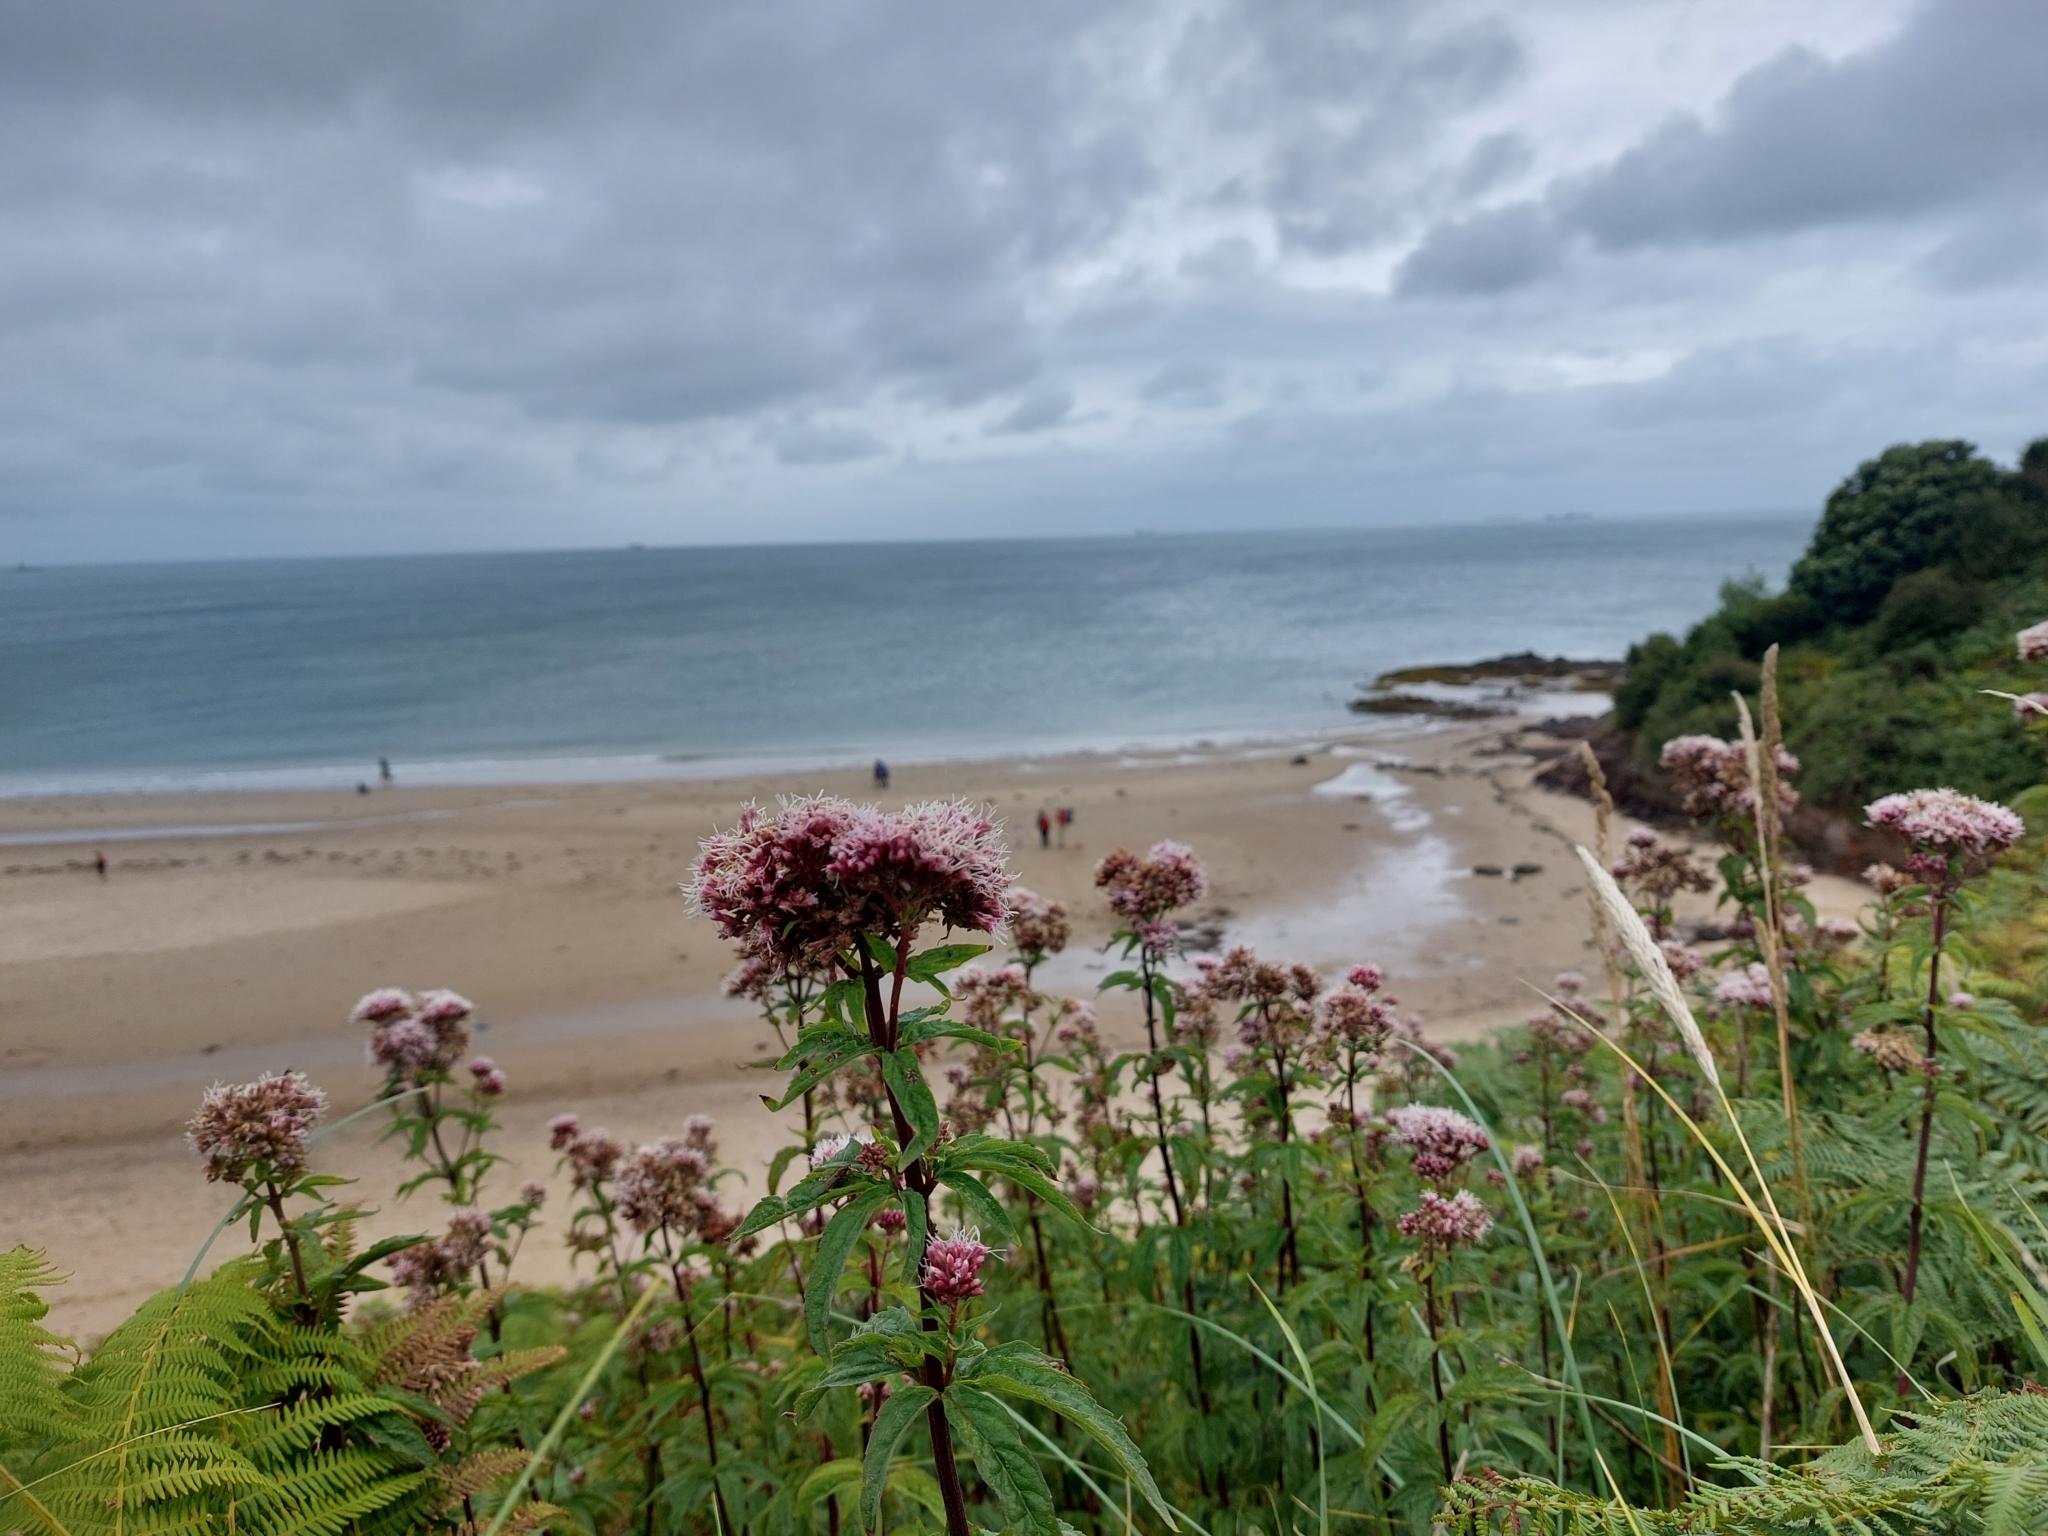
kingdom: Plantae
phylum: Tracheophyta
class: Magnoliopsida
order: Asterales
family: Asteraceae
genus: Eupatorium
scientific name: Eupatorium cannabinum
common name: Hemp-agrimony
